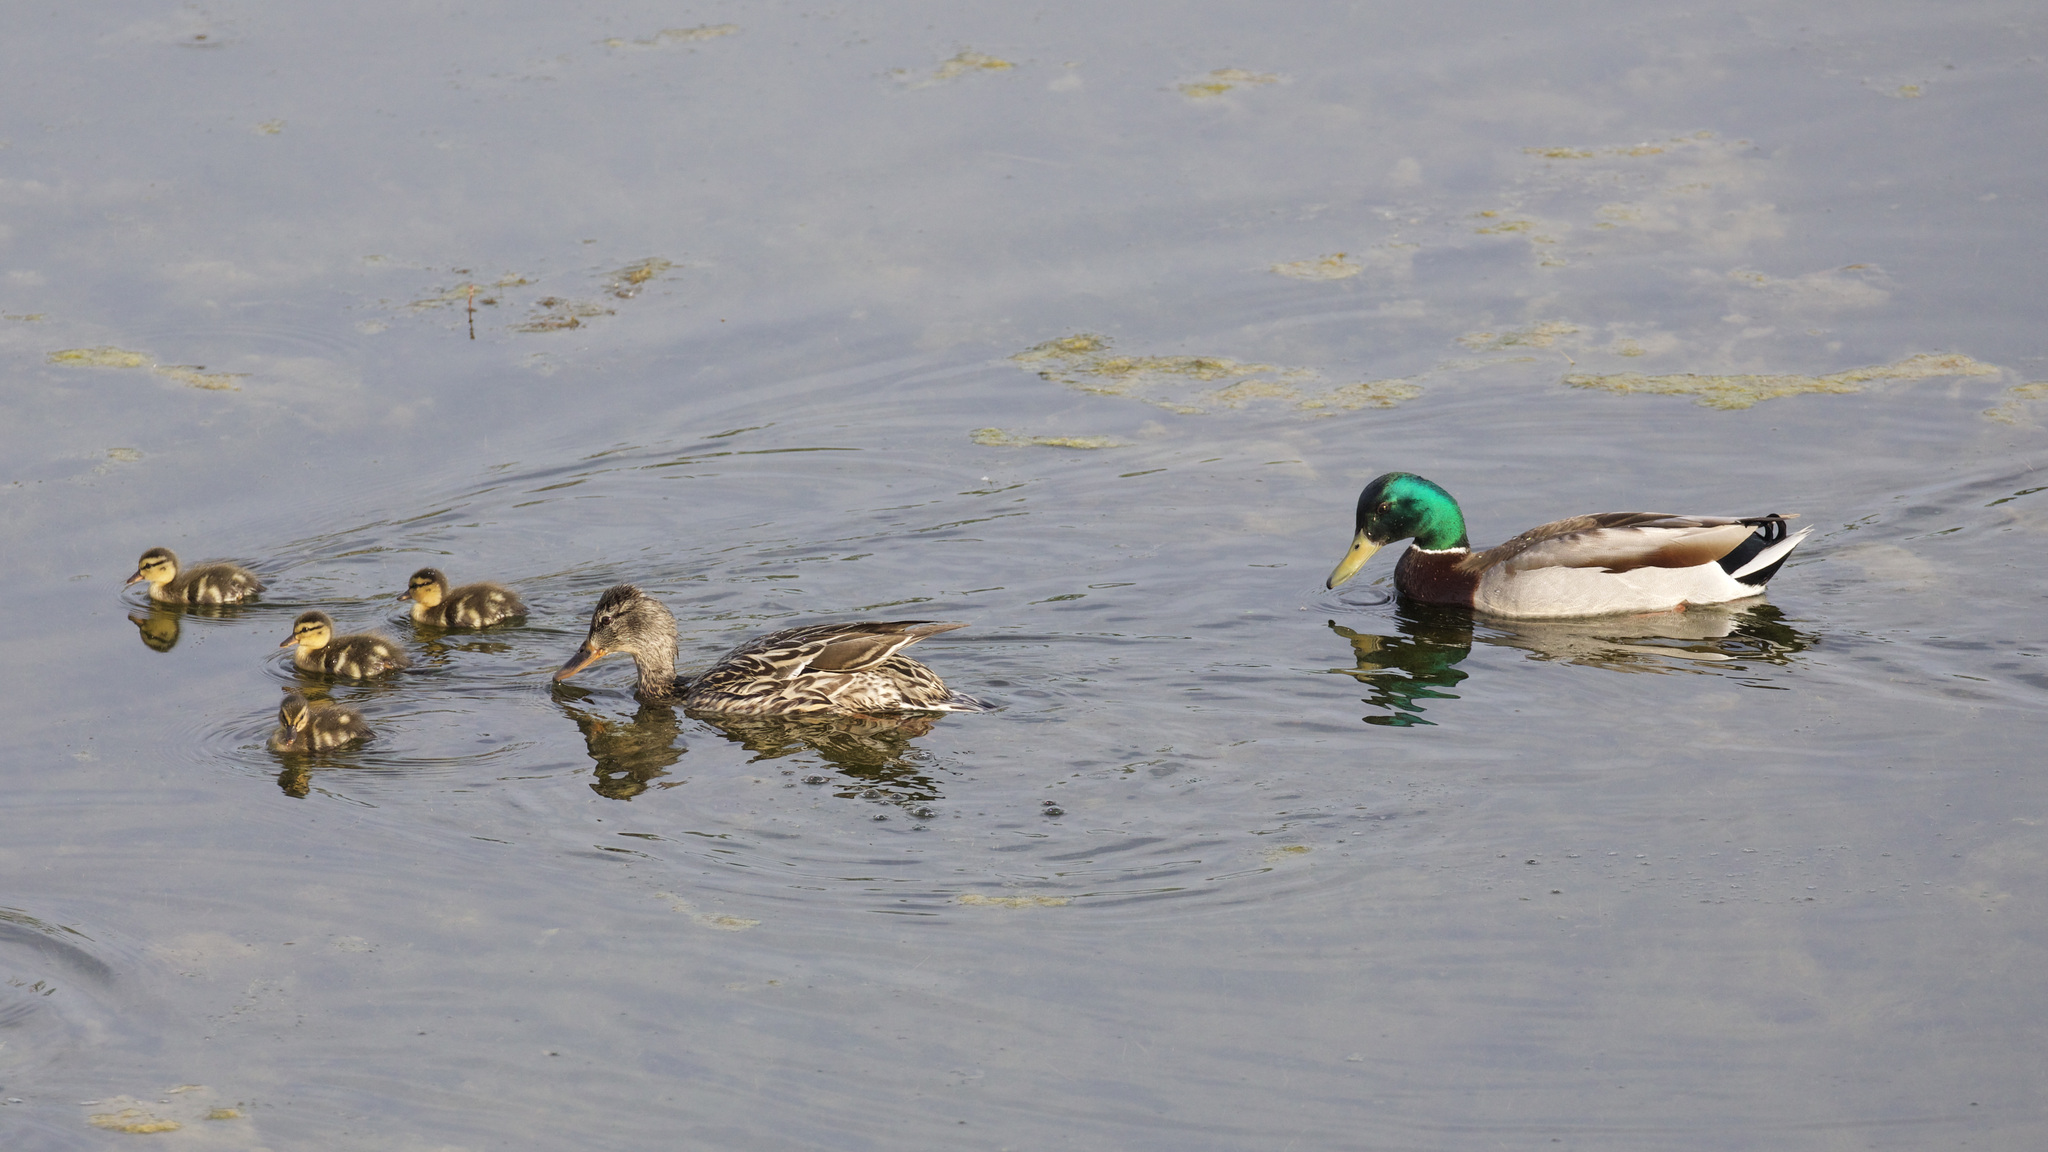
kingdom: Animalia
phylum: Chordata
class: Aves
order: Anseriformes
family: Anatidae
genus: Anas
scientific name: Anas platyrhynchos
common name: Mallard
